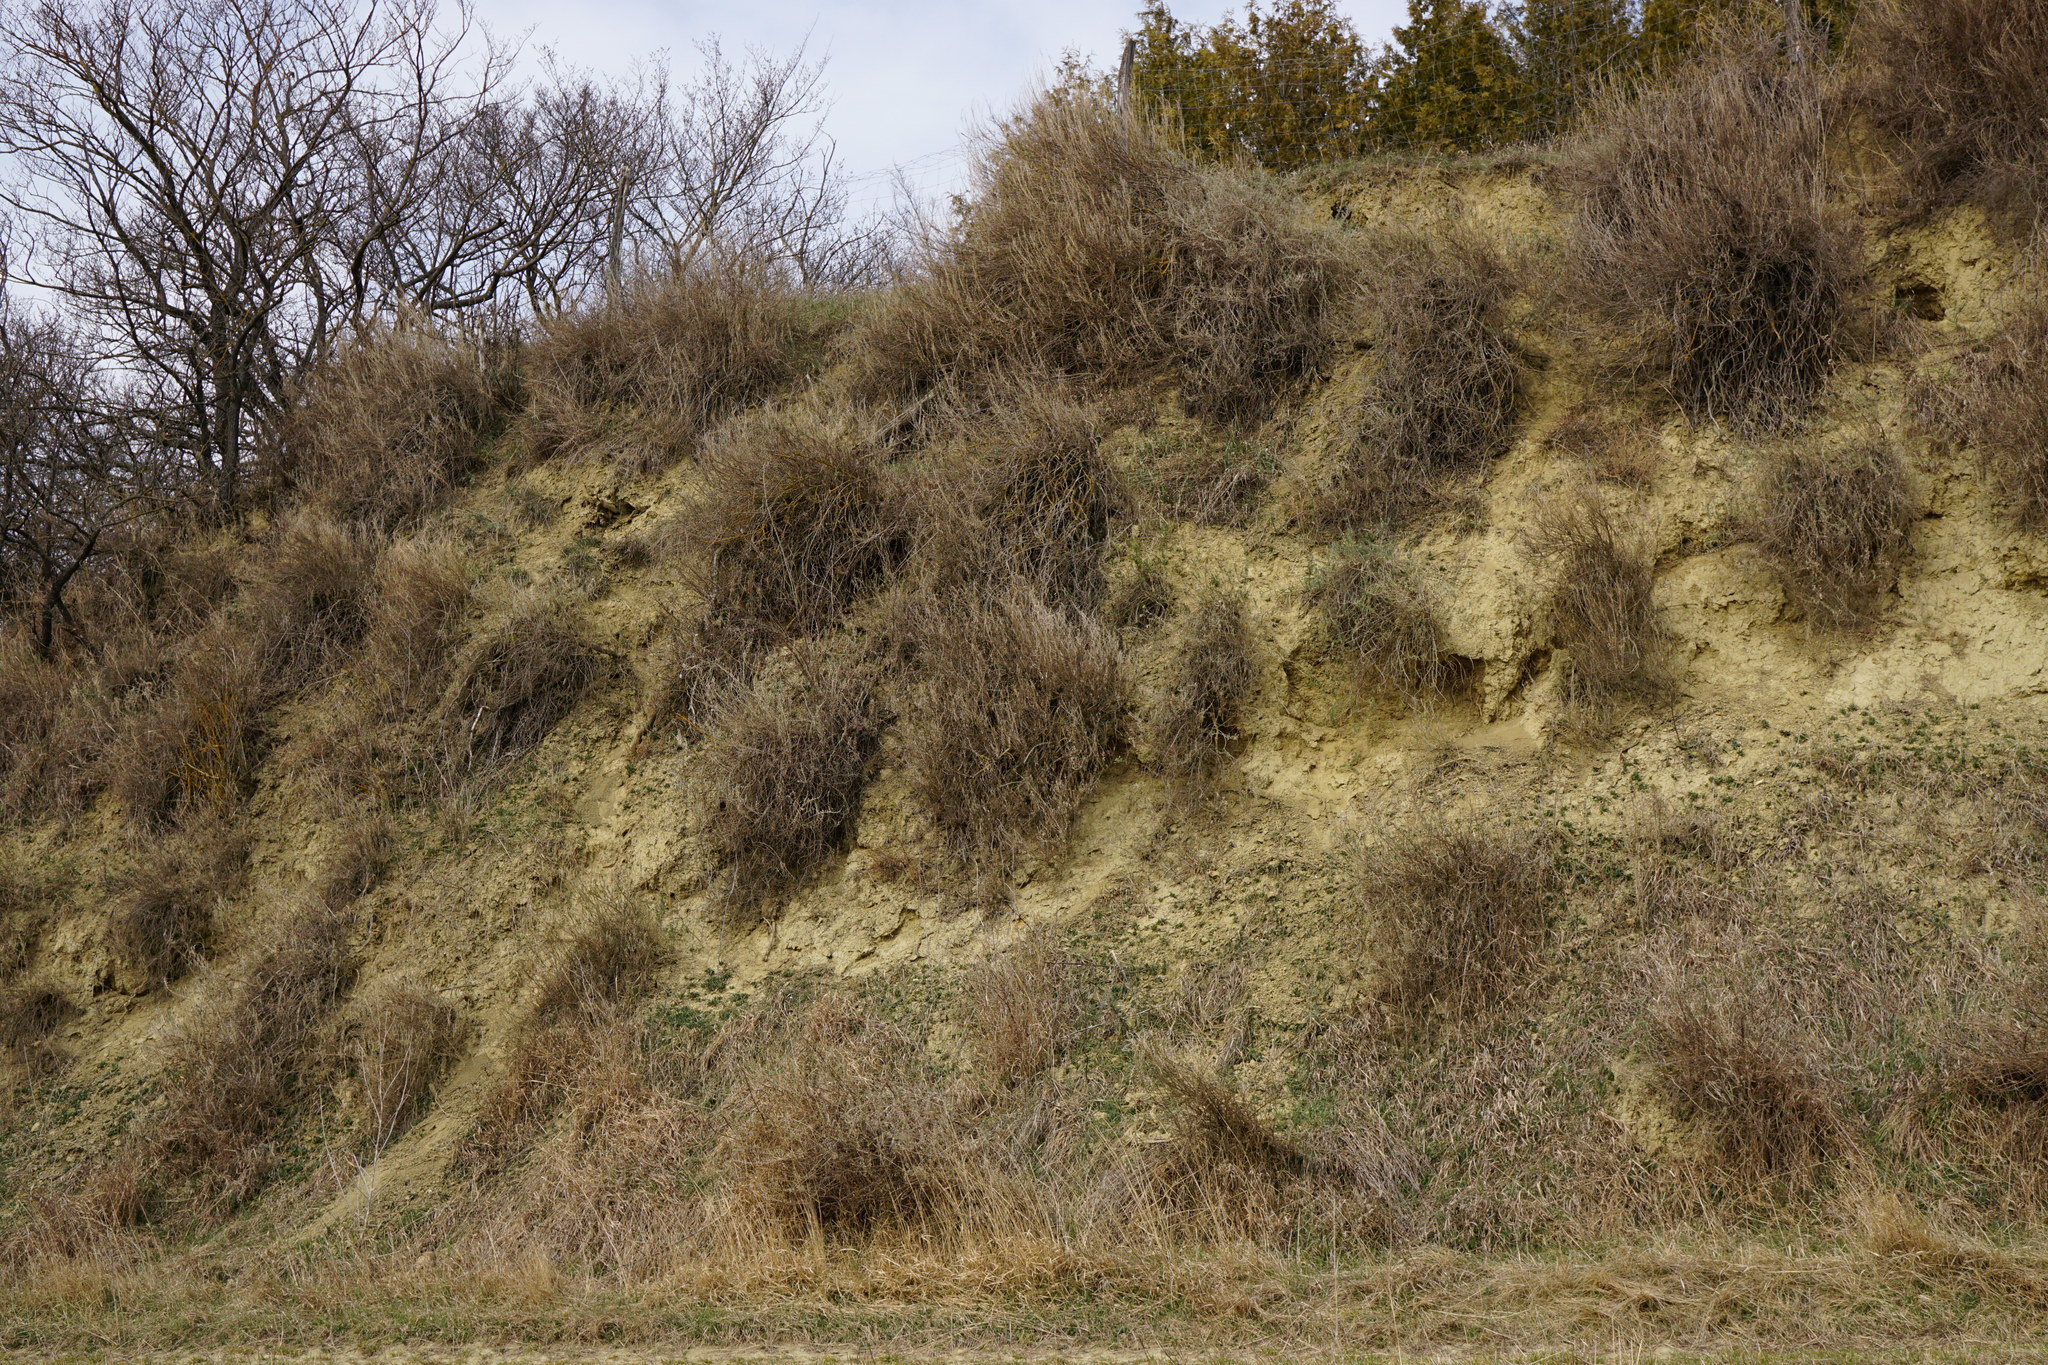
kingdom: Plantae
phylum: Tracheophyta
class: Magnoliopsida
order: Caryophyllales
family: Amaranthaceae
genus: Krascheninnikovia
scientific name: Krascheninnikovia ceratoides
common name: Pamirian winterfat
